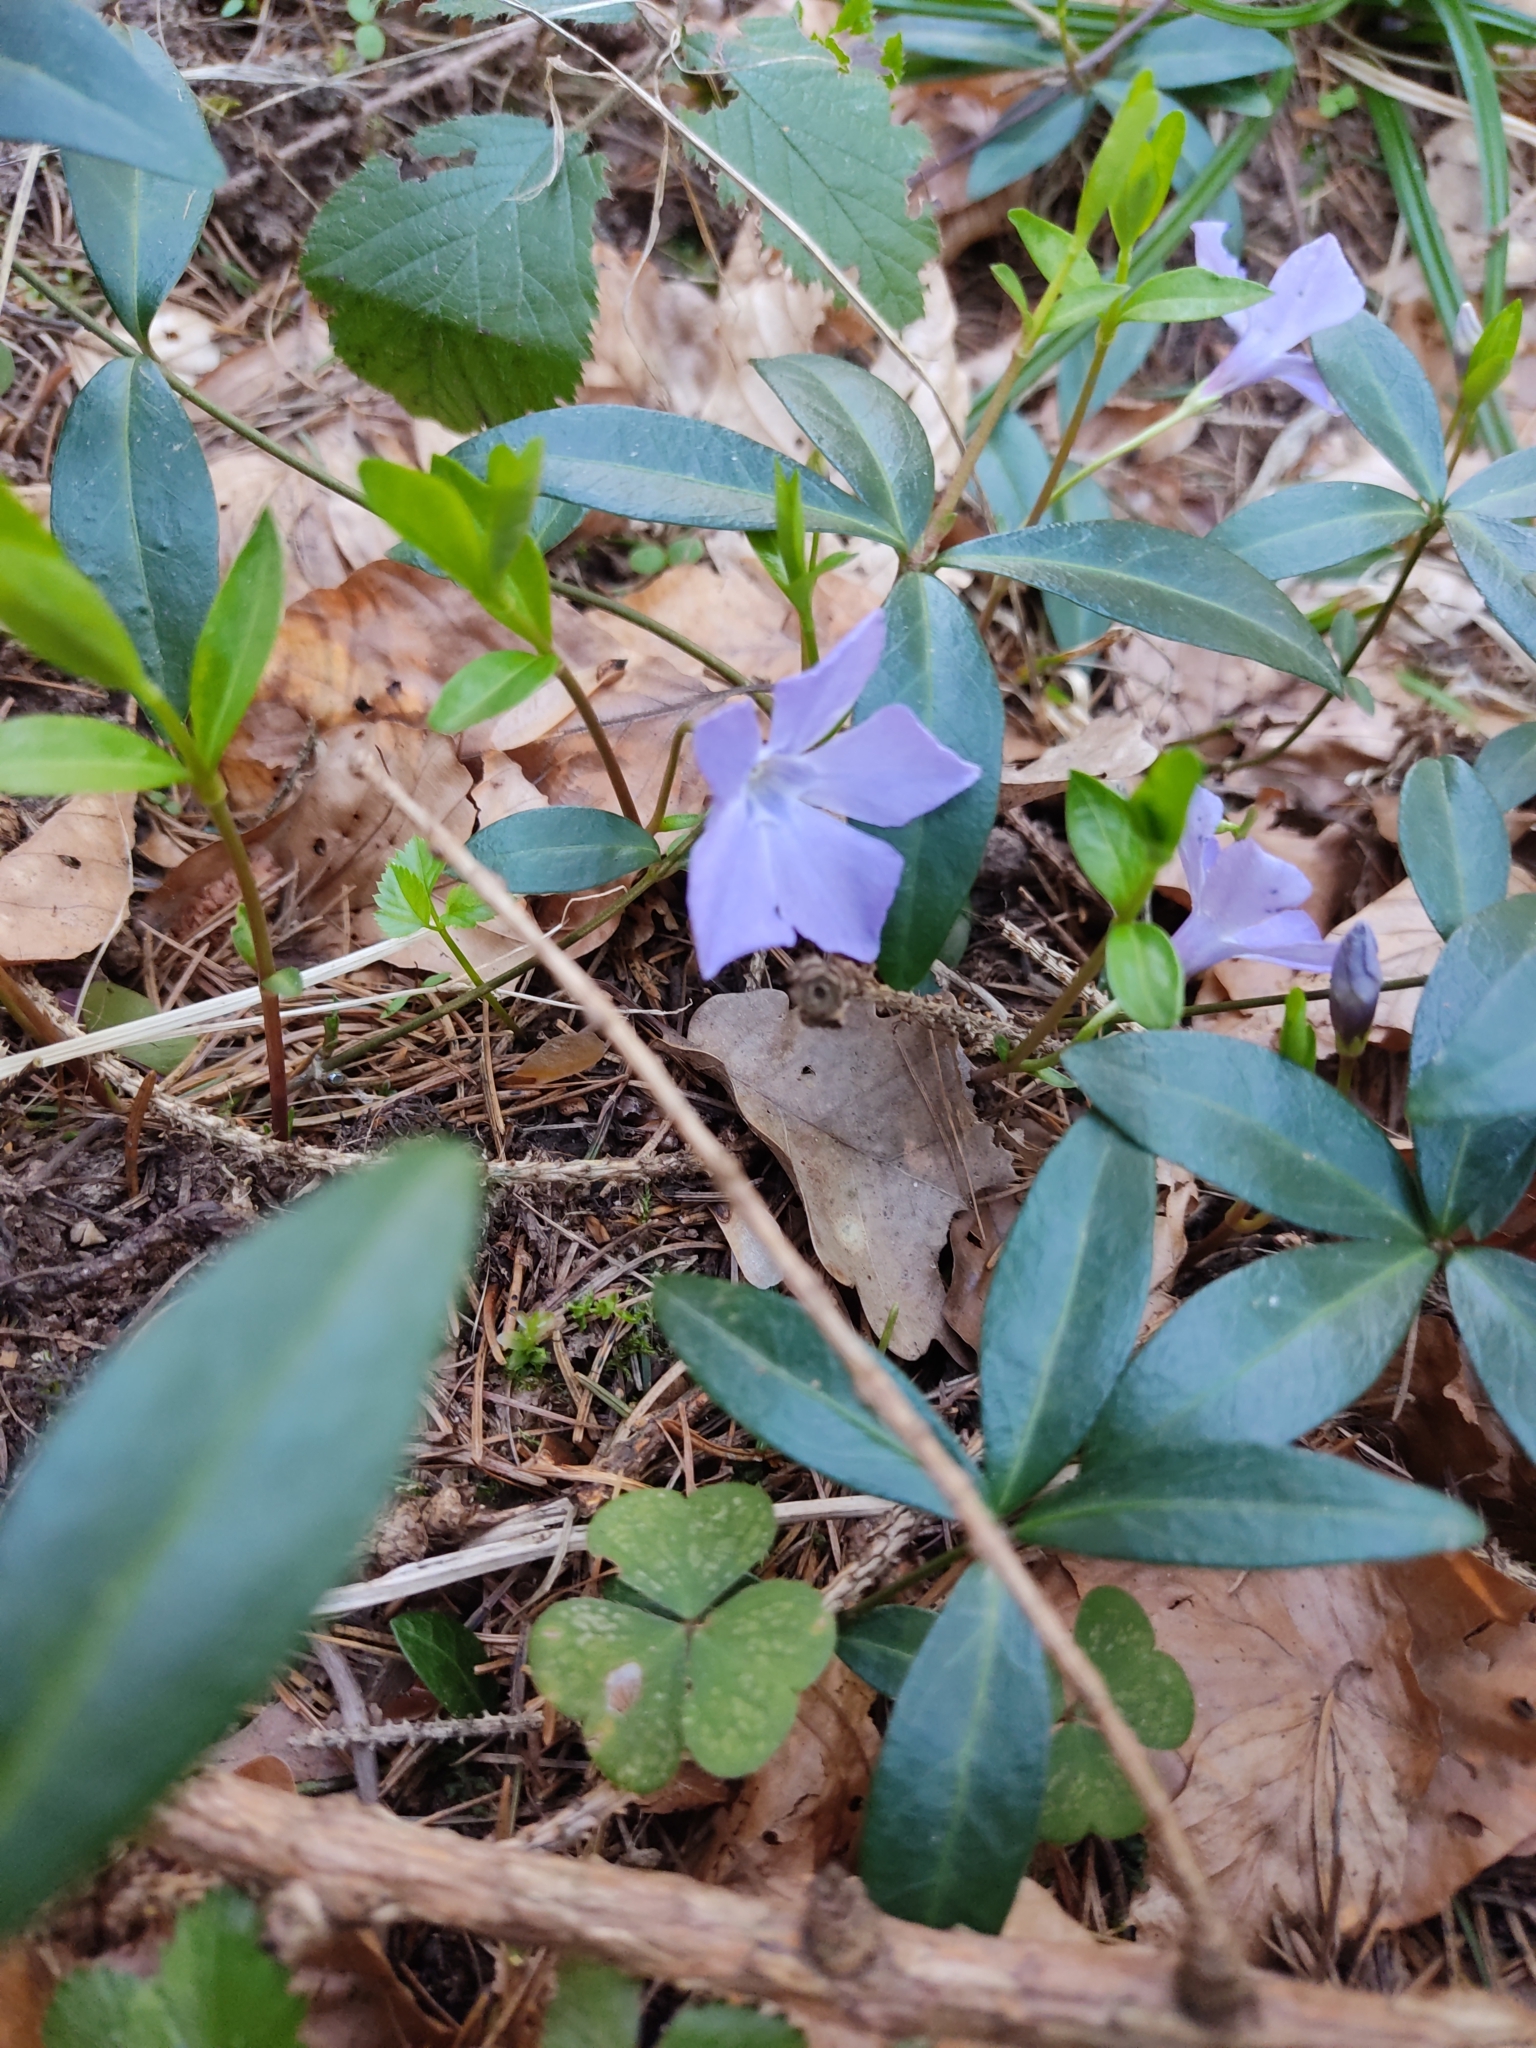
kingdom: Plantae
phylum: Tracheophyta
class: Magnoliopsida
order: Gentianales
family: Apocynaceae
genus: Vinca
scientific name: Vinca minor
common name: Lesser periwinkle
